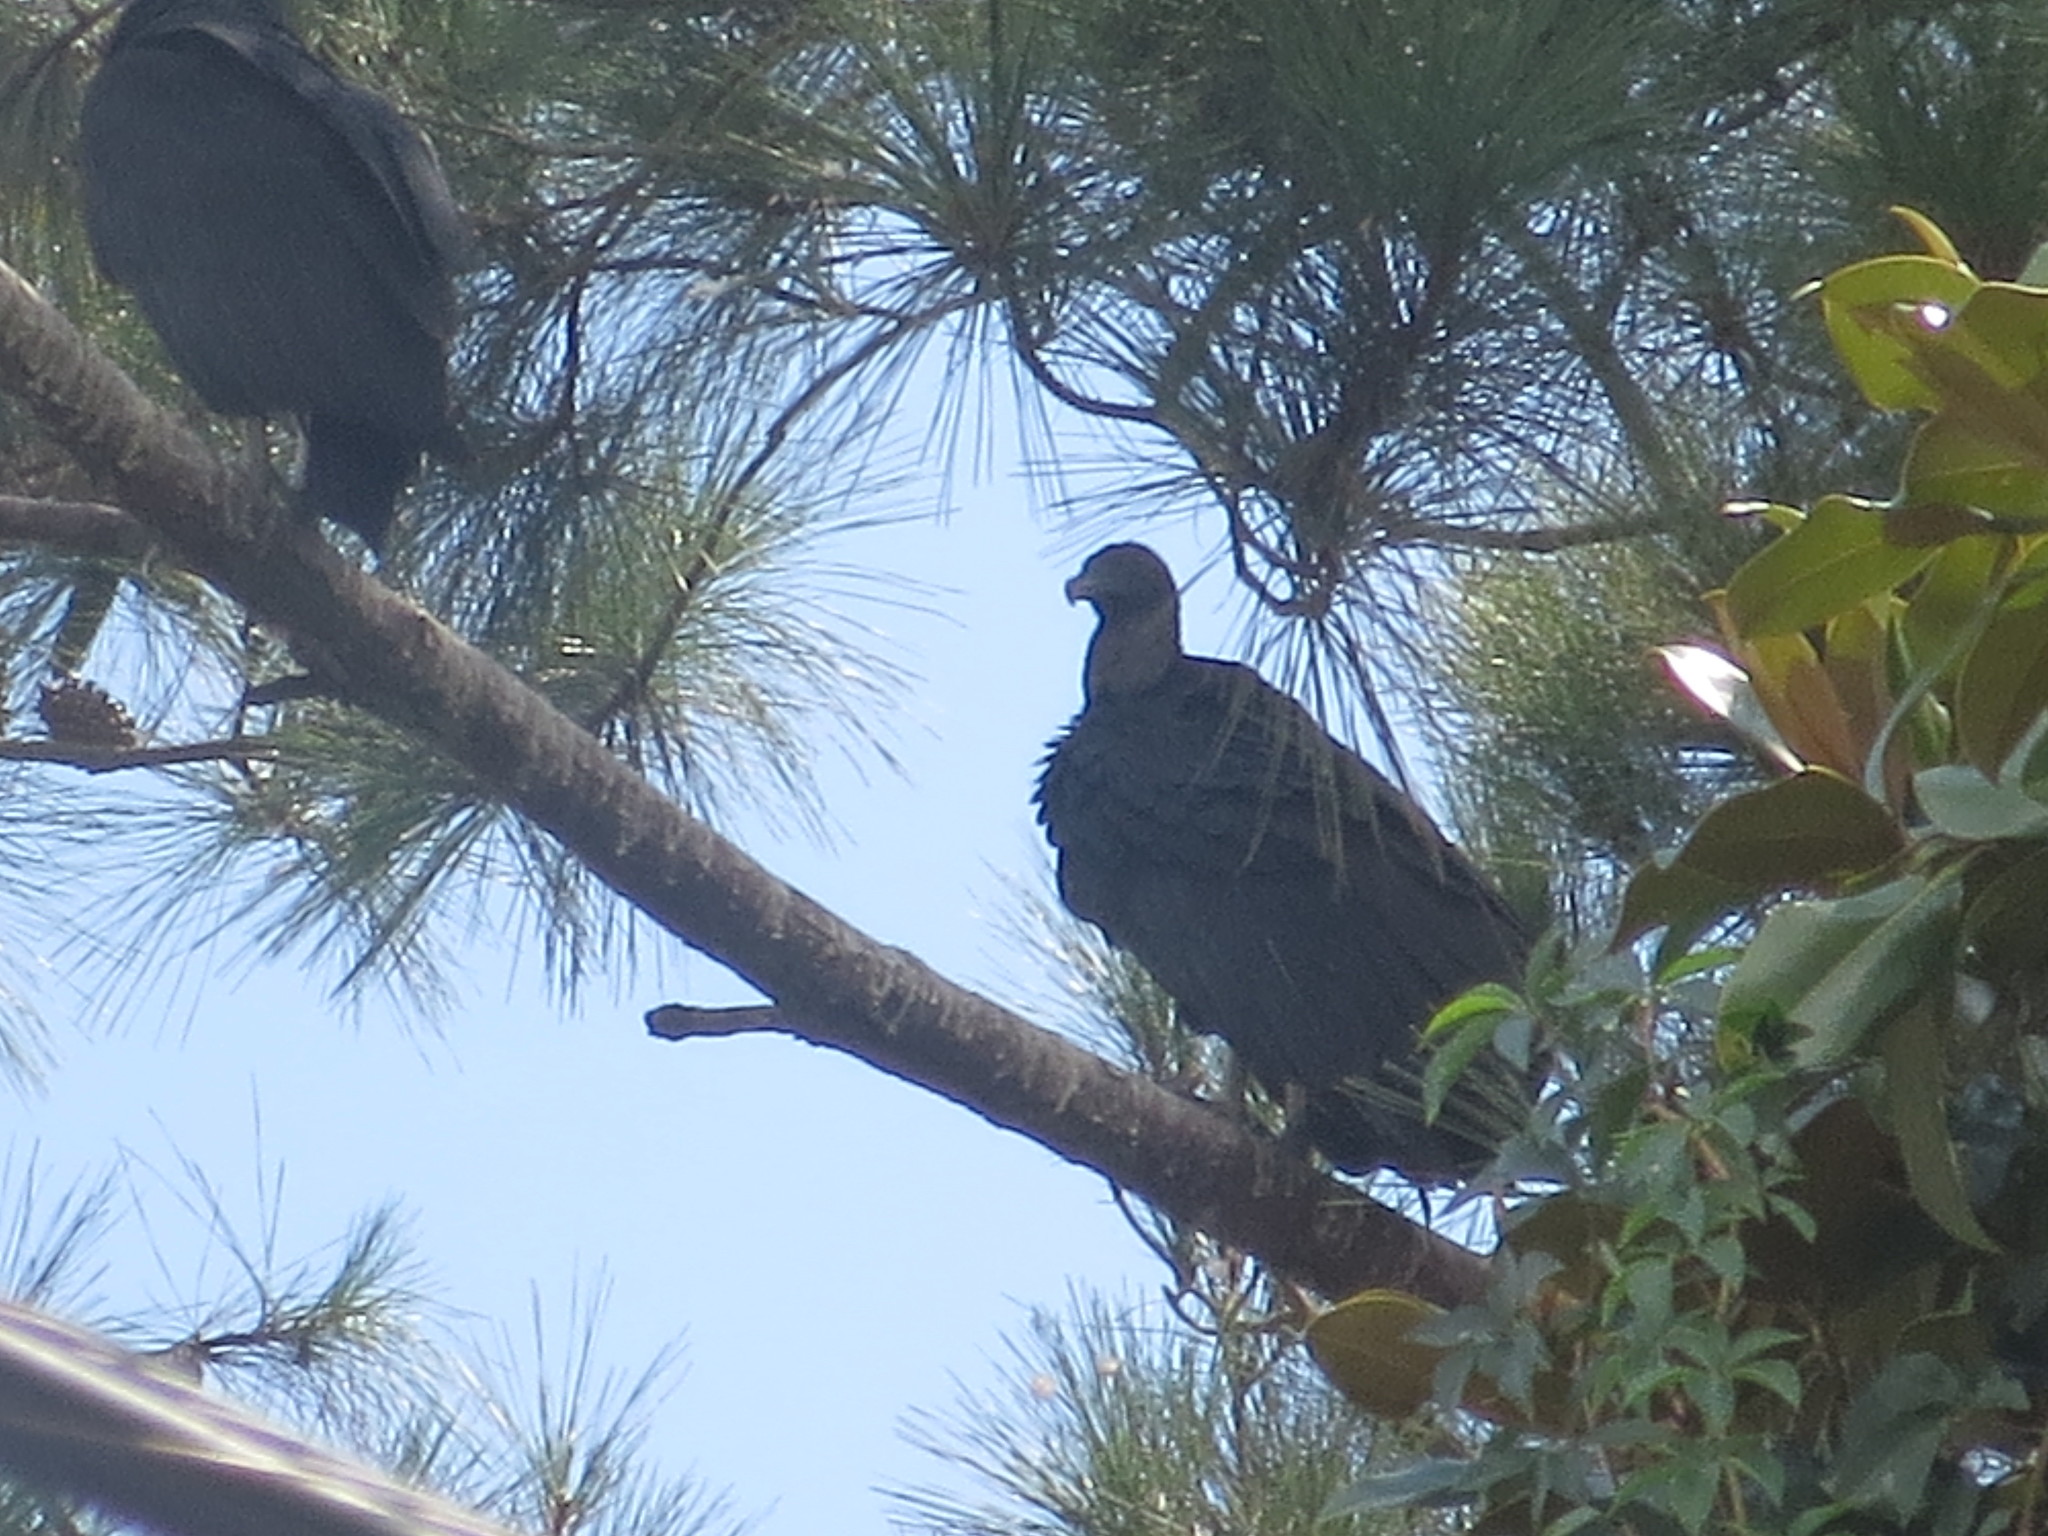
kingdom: Animalia
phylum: Chordata
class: Aves
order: Accipitriformes
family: Cathartidae
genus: Coragyps
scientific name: Coragyps atratus
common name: Black vulture
